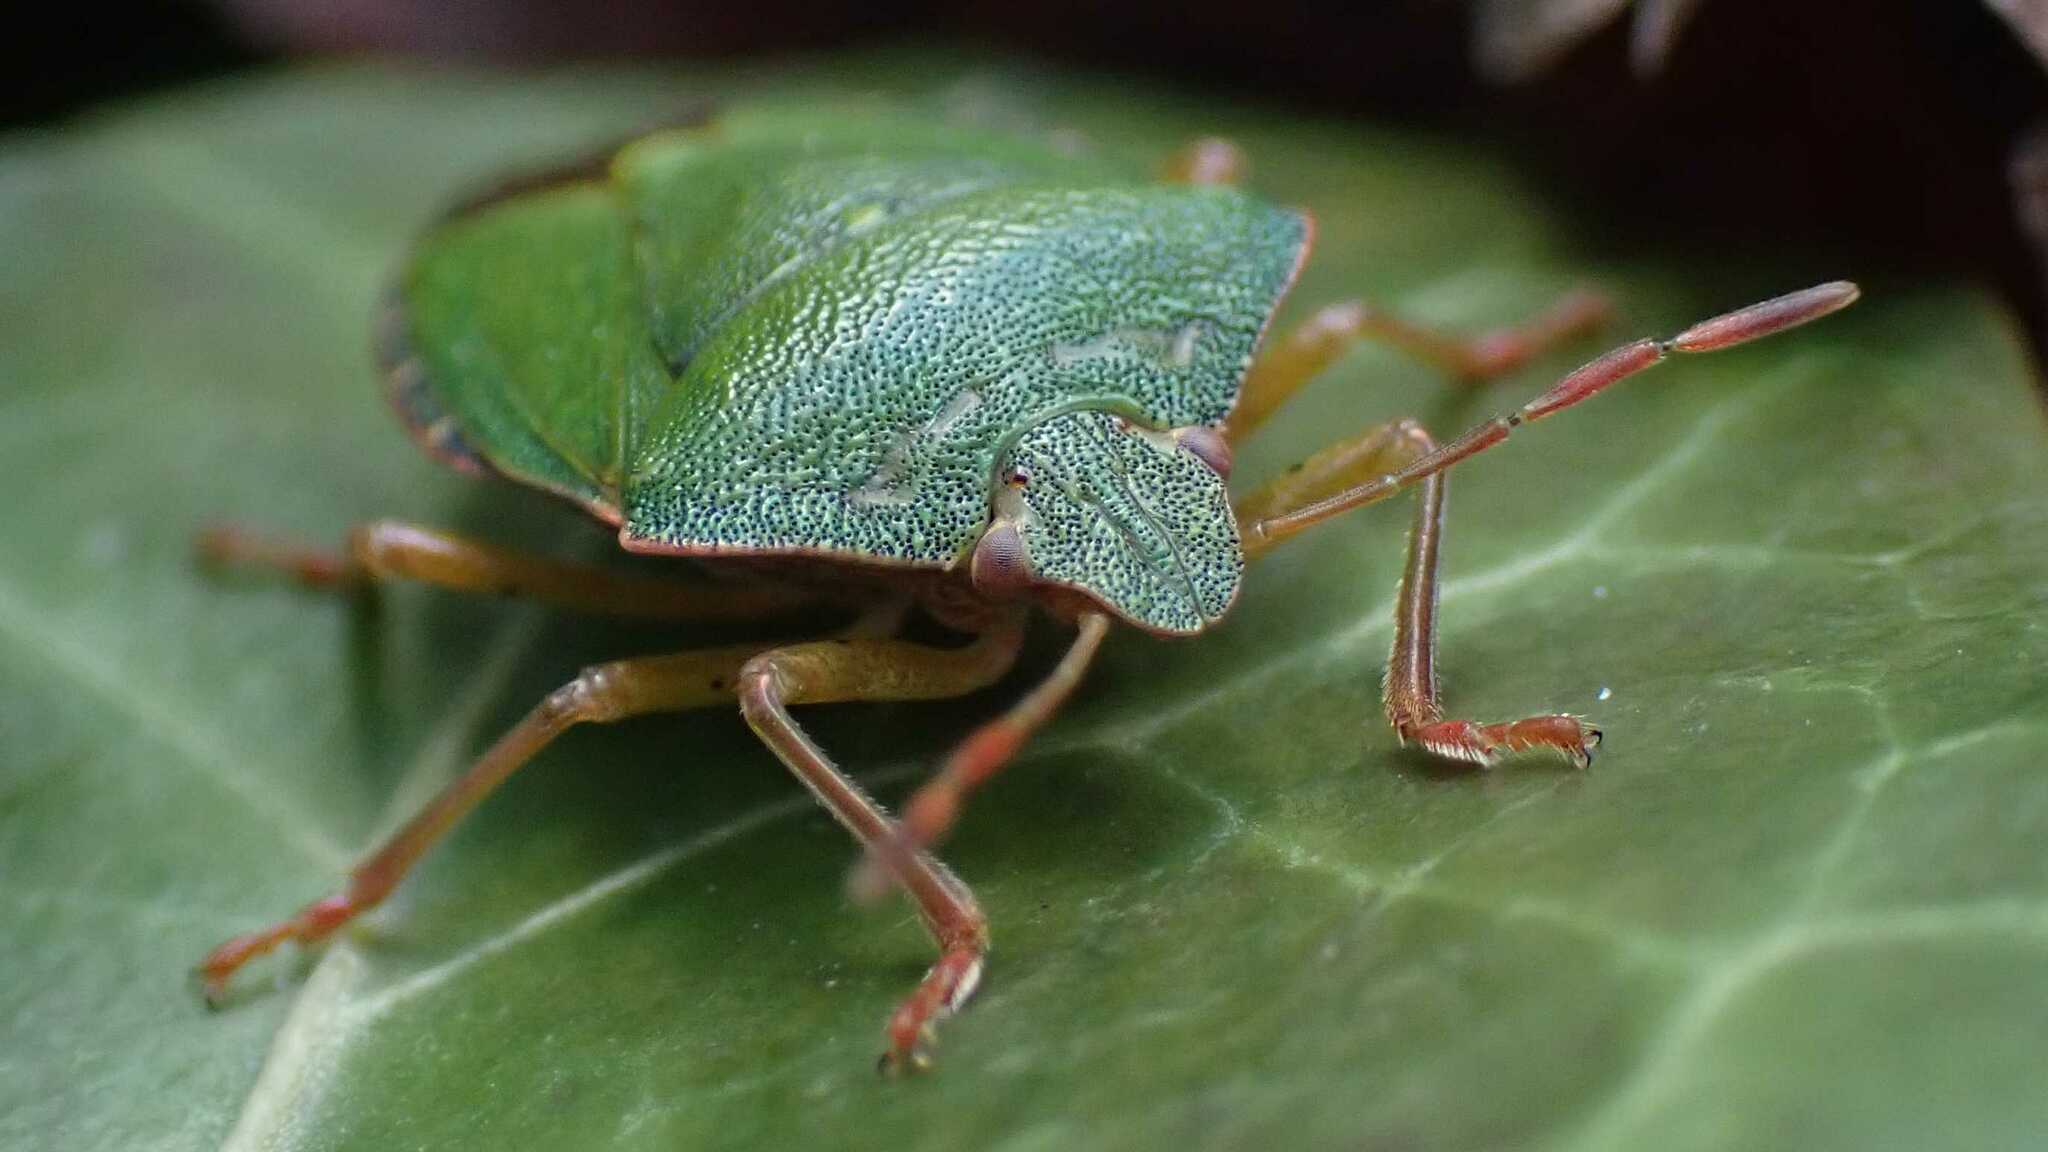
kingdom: Animalia
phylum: Arthropoda
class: Insecta
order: Hemiptera
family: Pentatomidae
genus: Palomena
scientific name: Palomena prasina
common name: Green shieldbug
